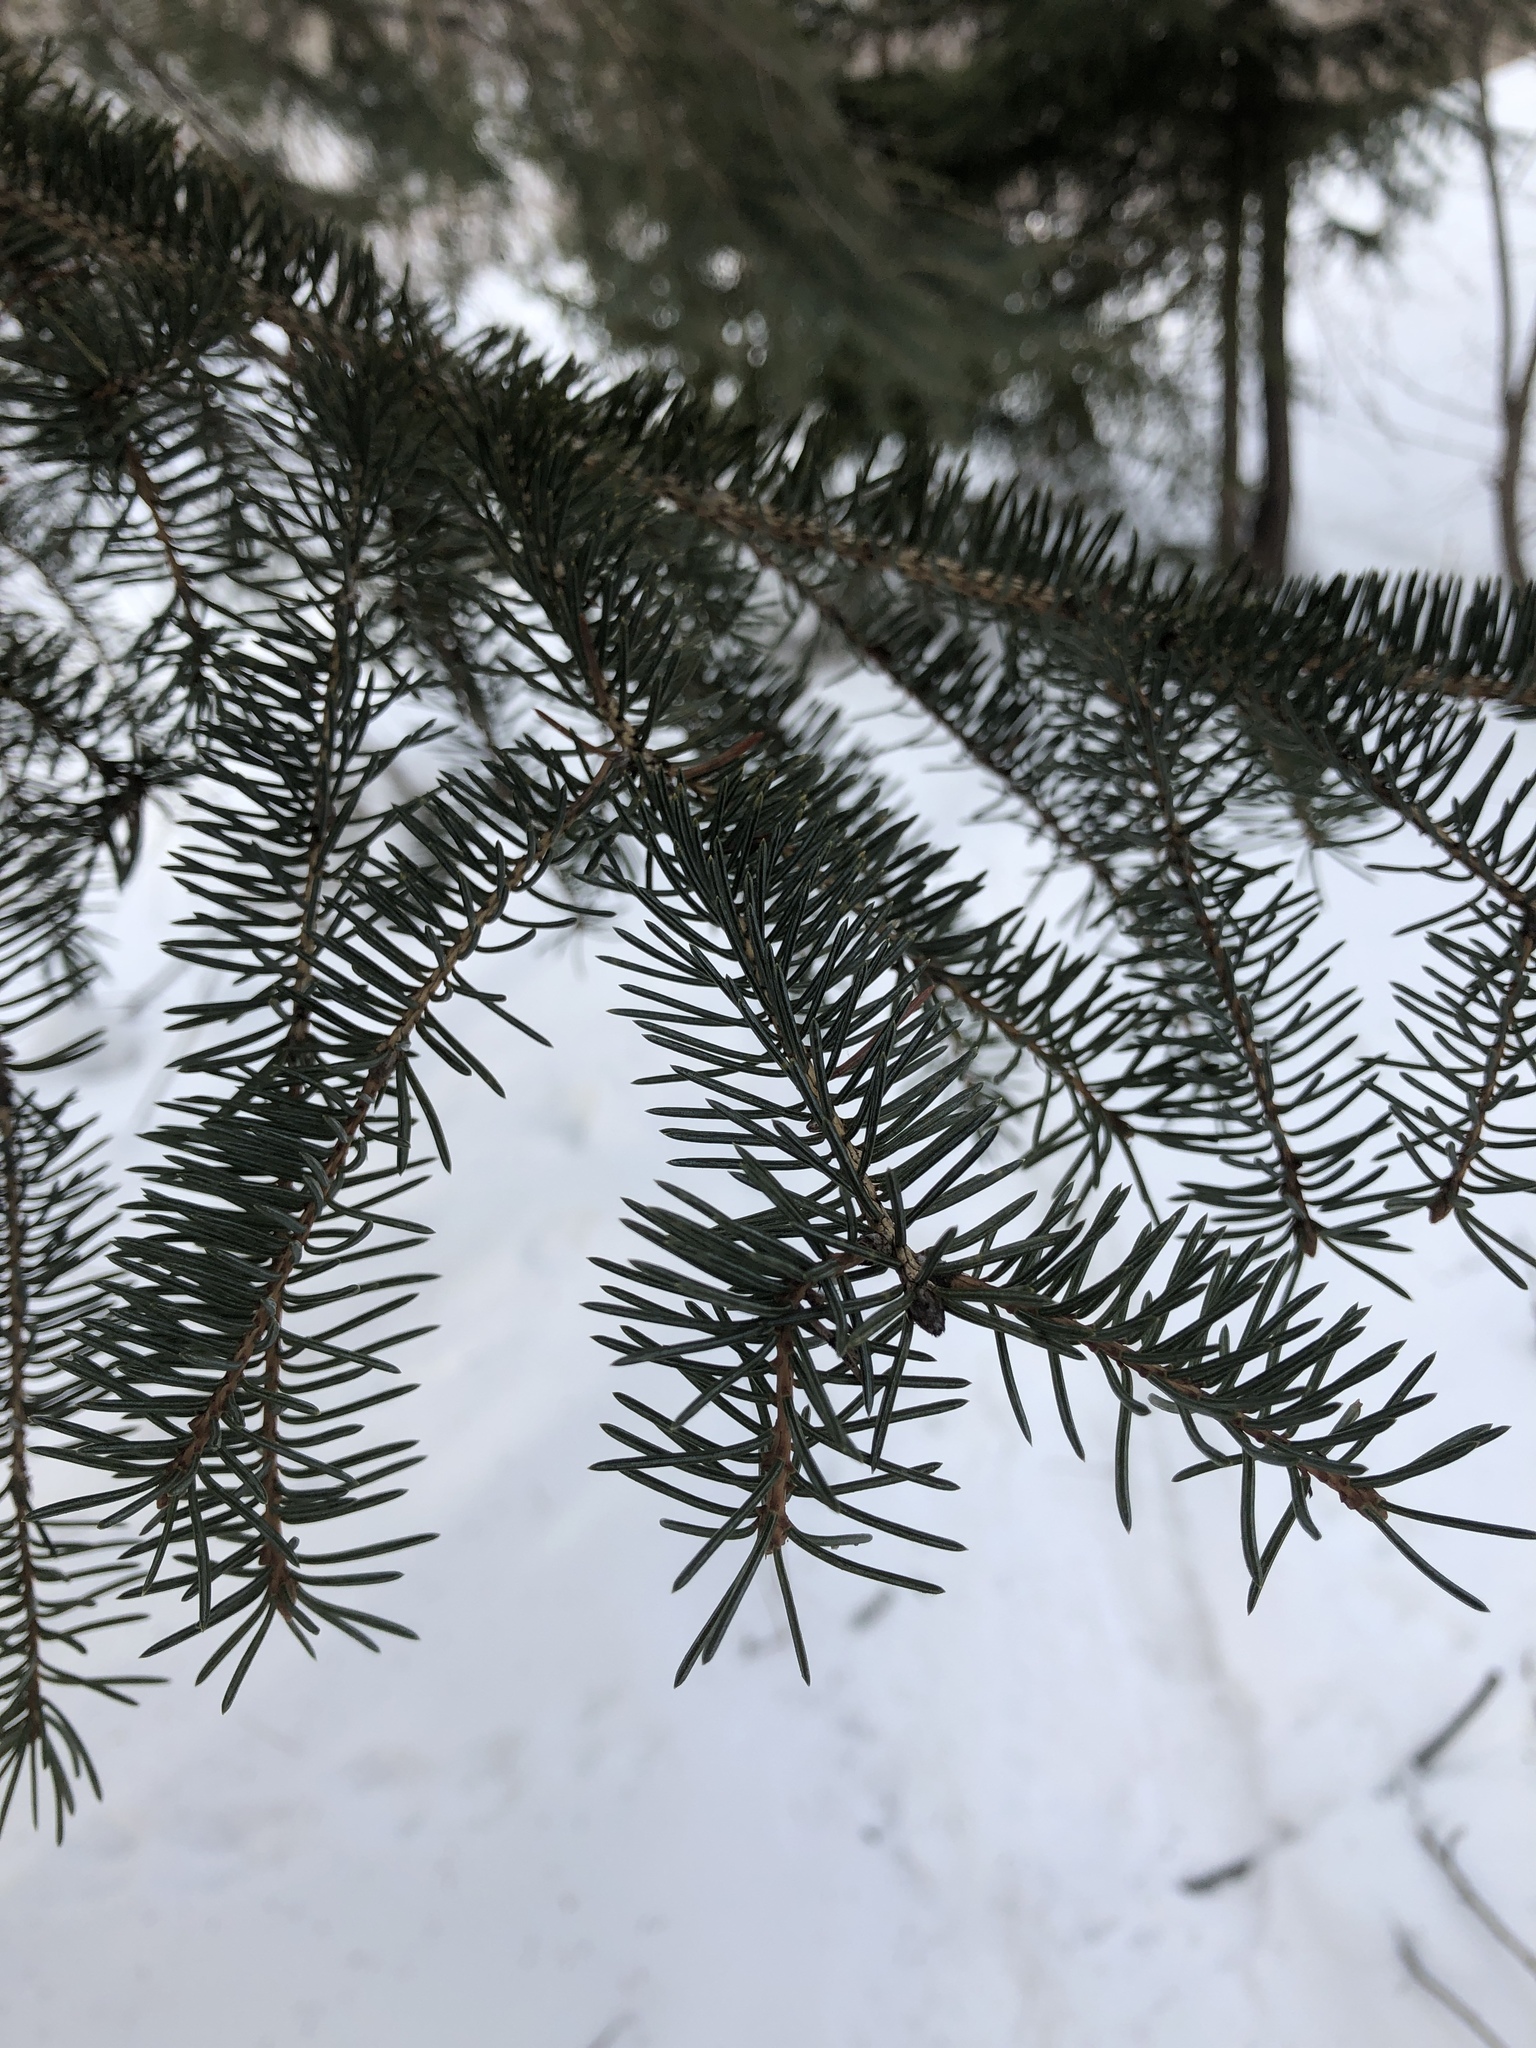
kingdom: Plantae
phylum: Tracheophyta
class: Pinopsida
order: Pinales
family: Pinaceae
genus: Picea
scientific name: Picea glauca
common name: White spruce
